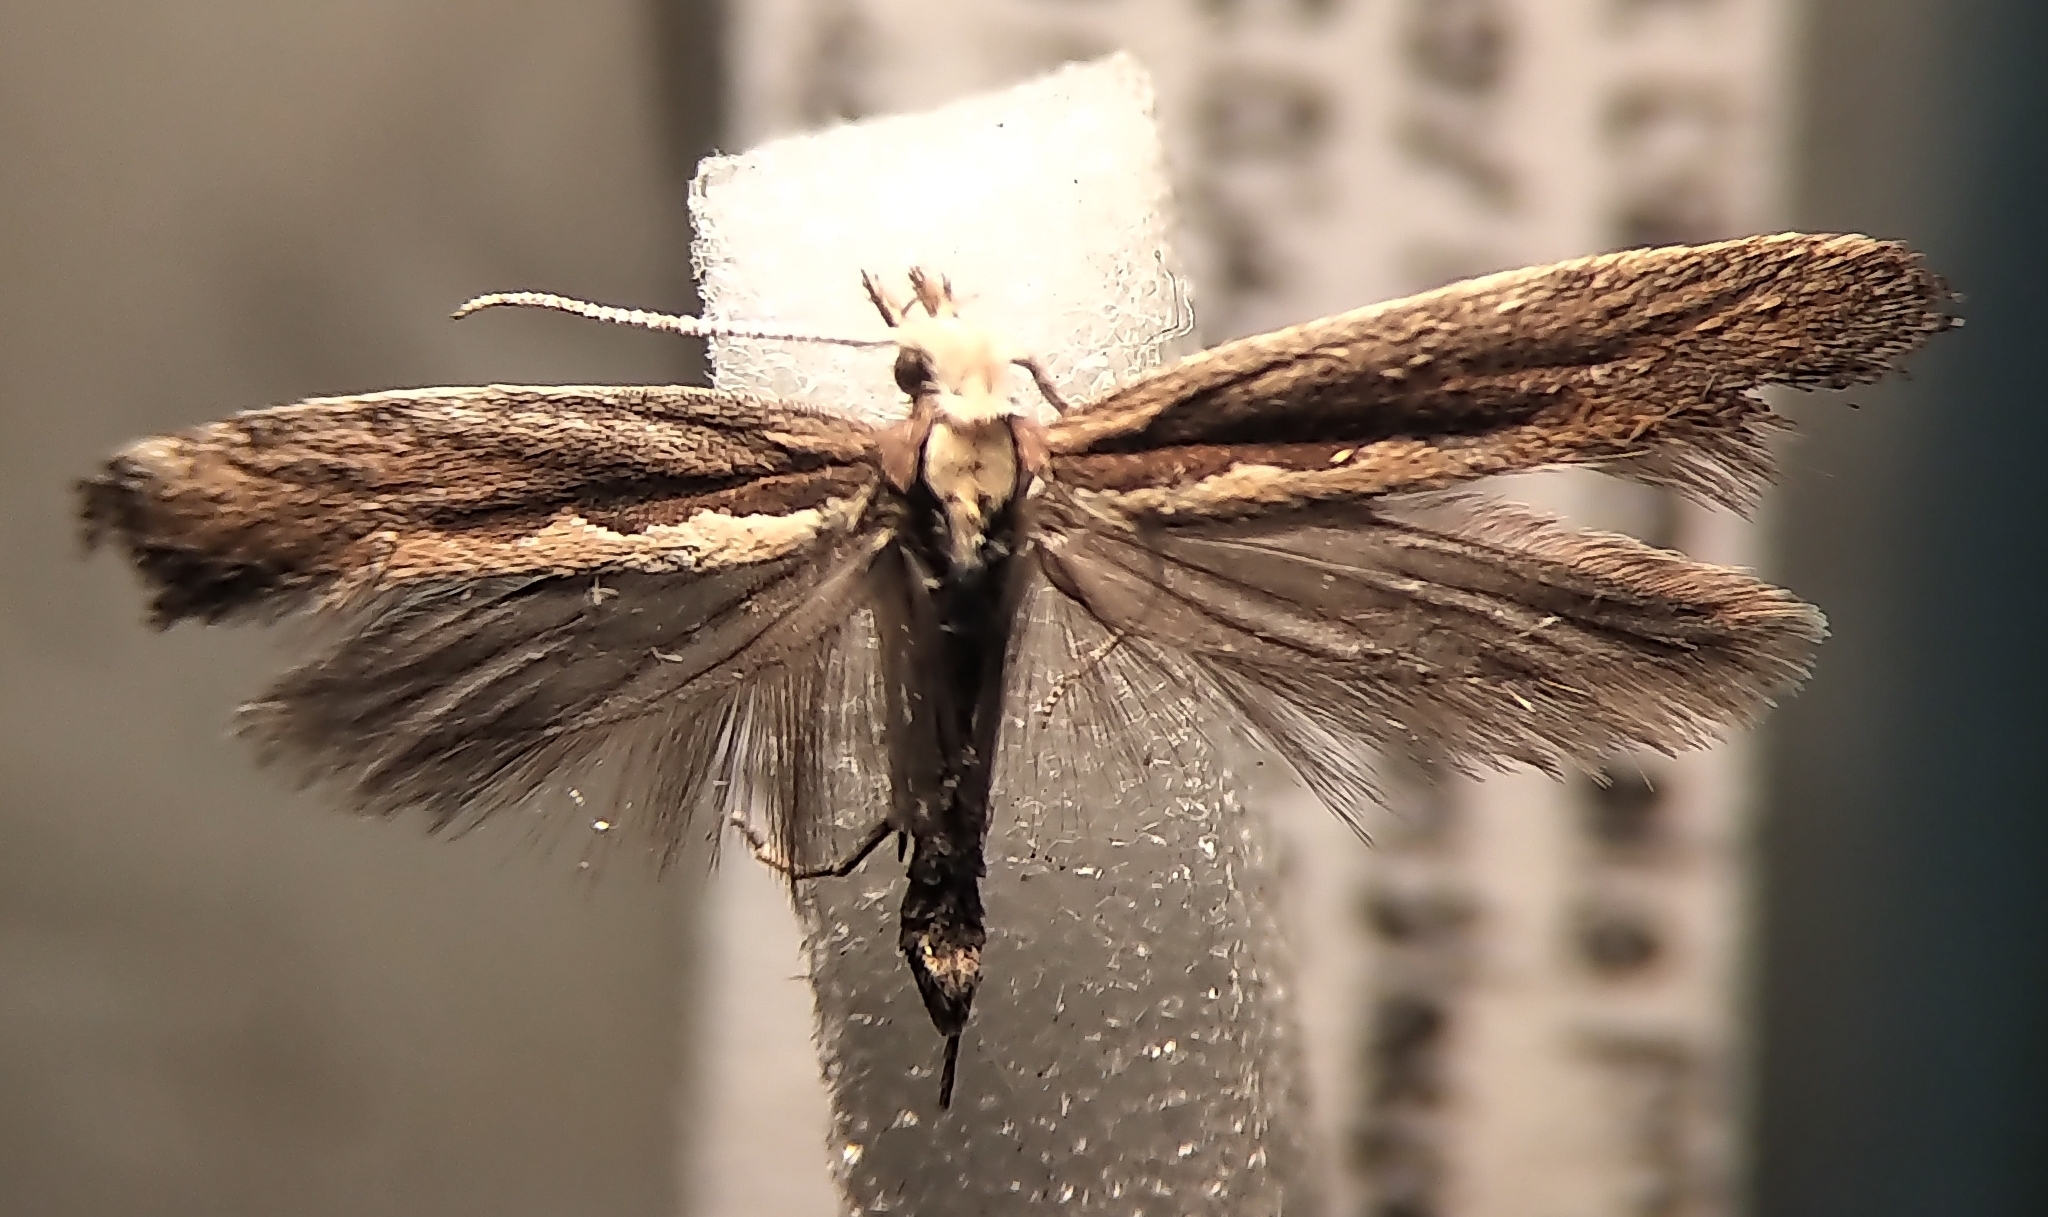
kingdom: Animalia
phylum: Arthropoda
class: Insecta
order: Lepidoptera
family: Plutellidae
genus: Plutella
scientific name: Plutella xylostella
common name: Diamond-back moth
